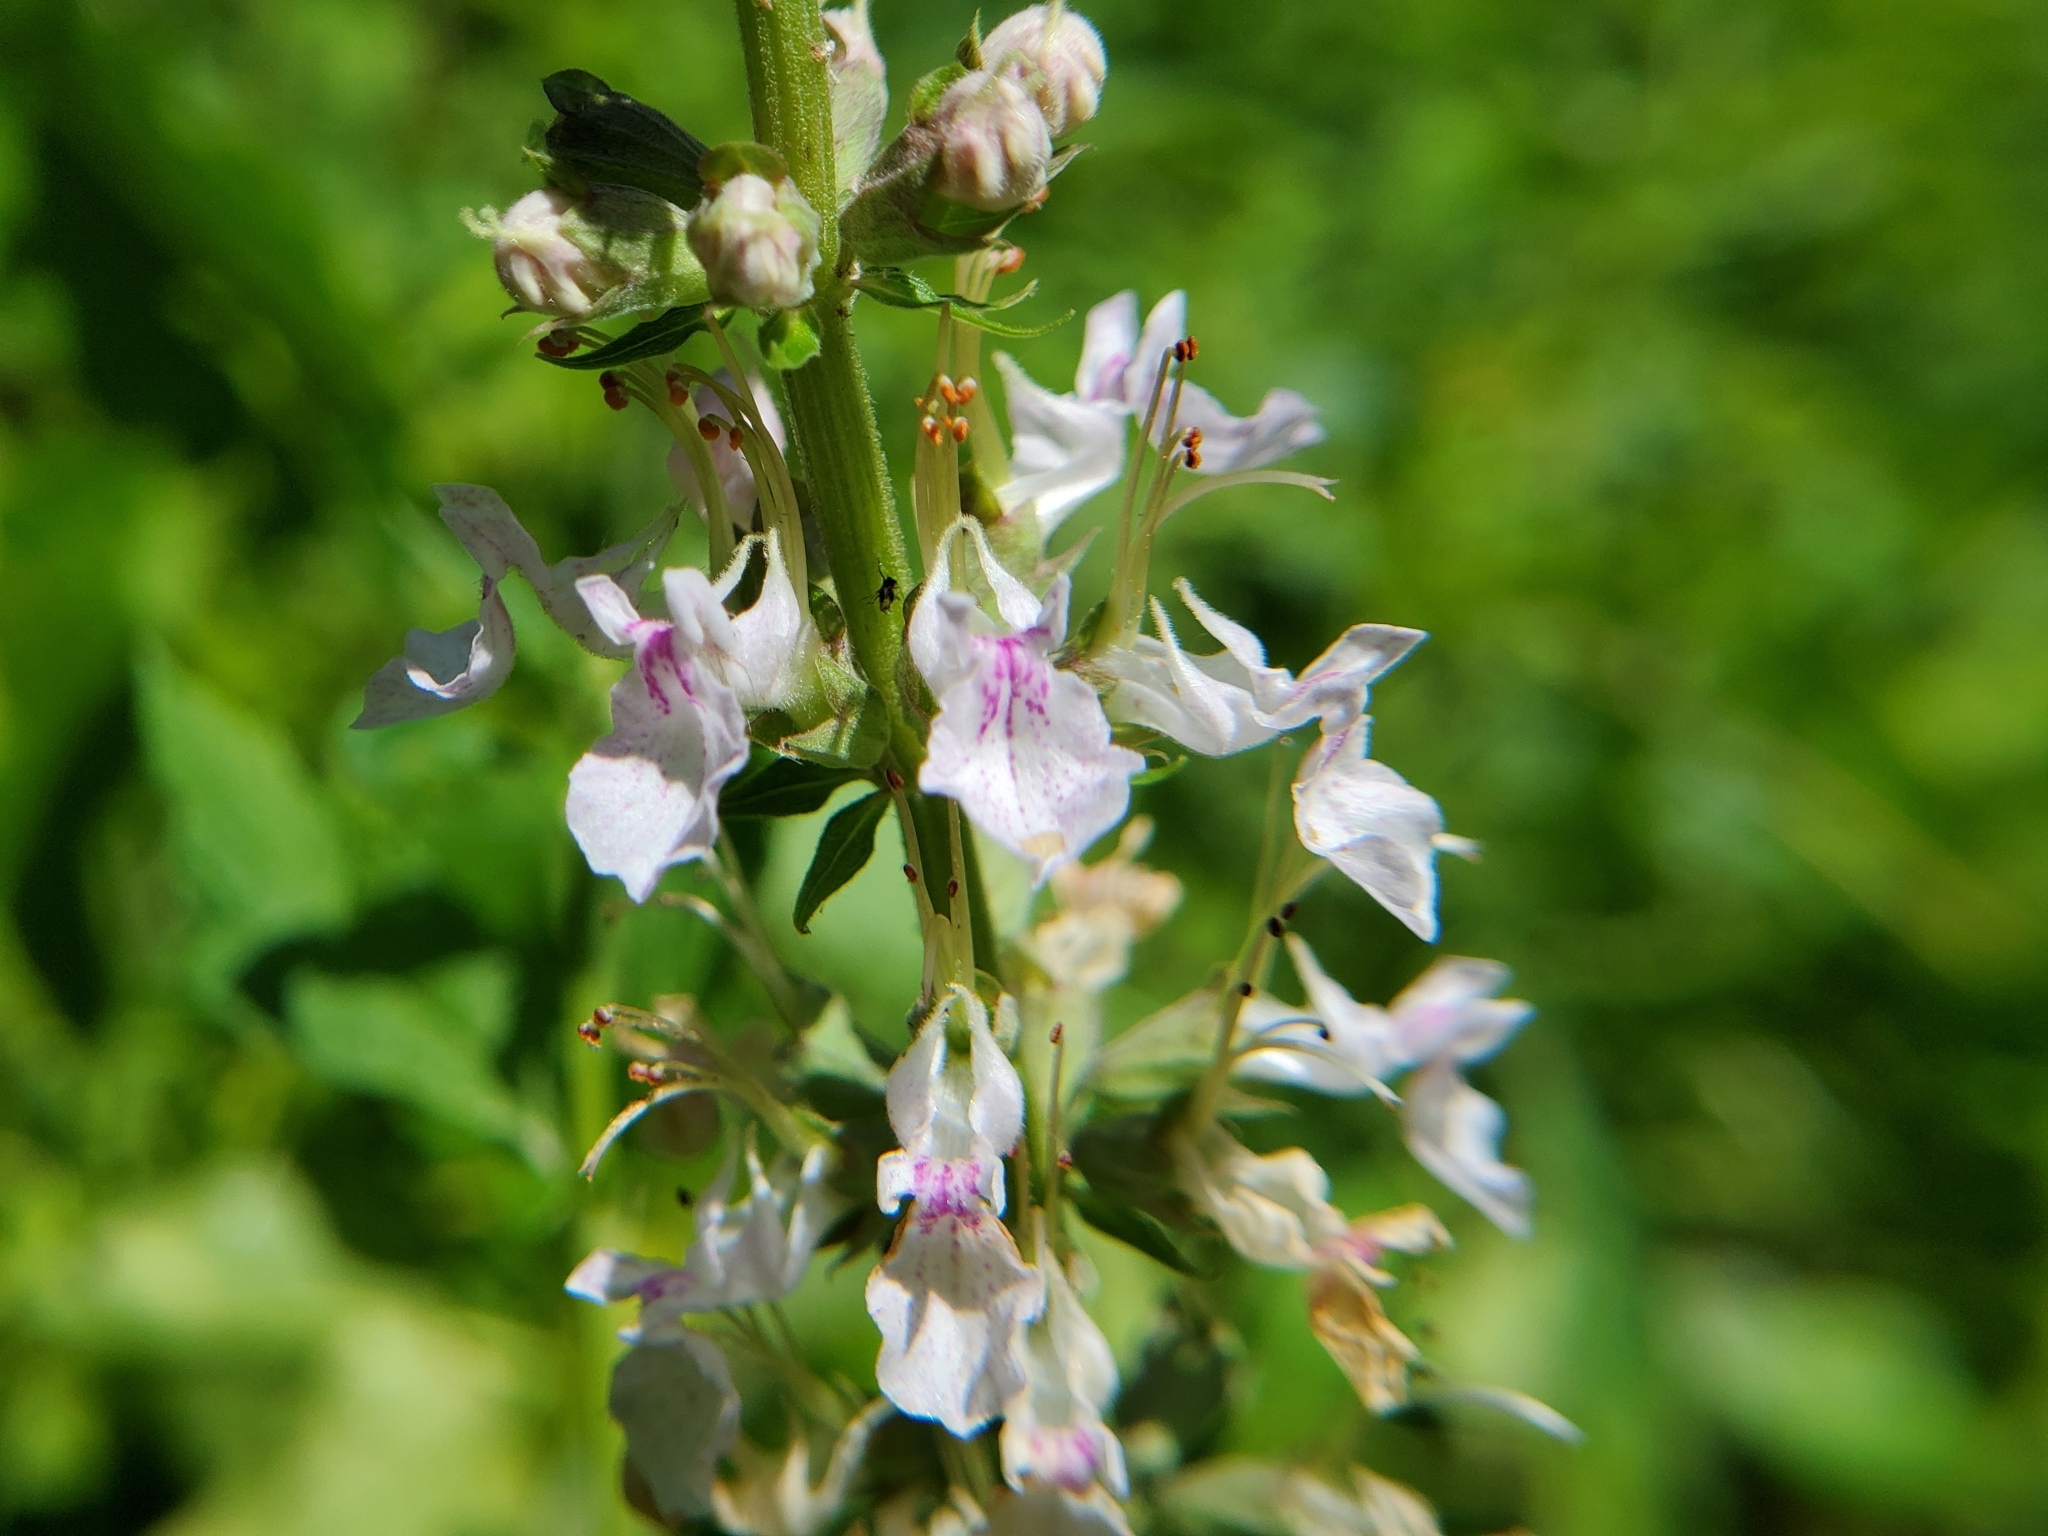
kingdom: Plantae
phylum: Tracheophyta
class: Magnoliopsida
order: Lamiales
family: Lamiaceae
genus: Teucrium
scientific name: Teucrium canadense
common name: American germander
